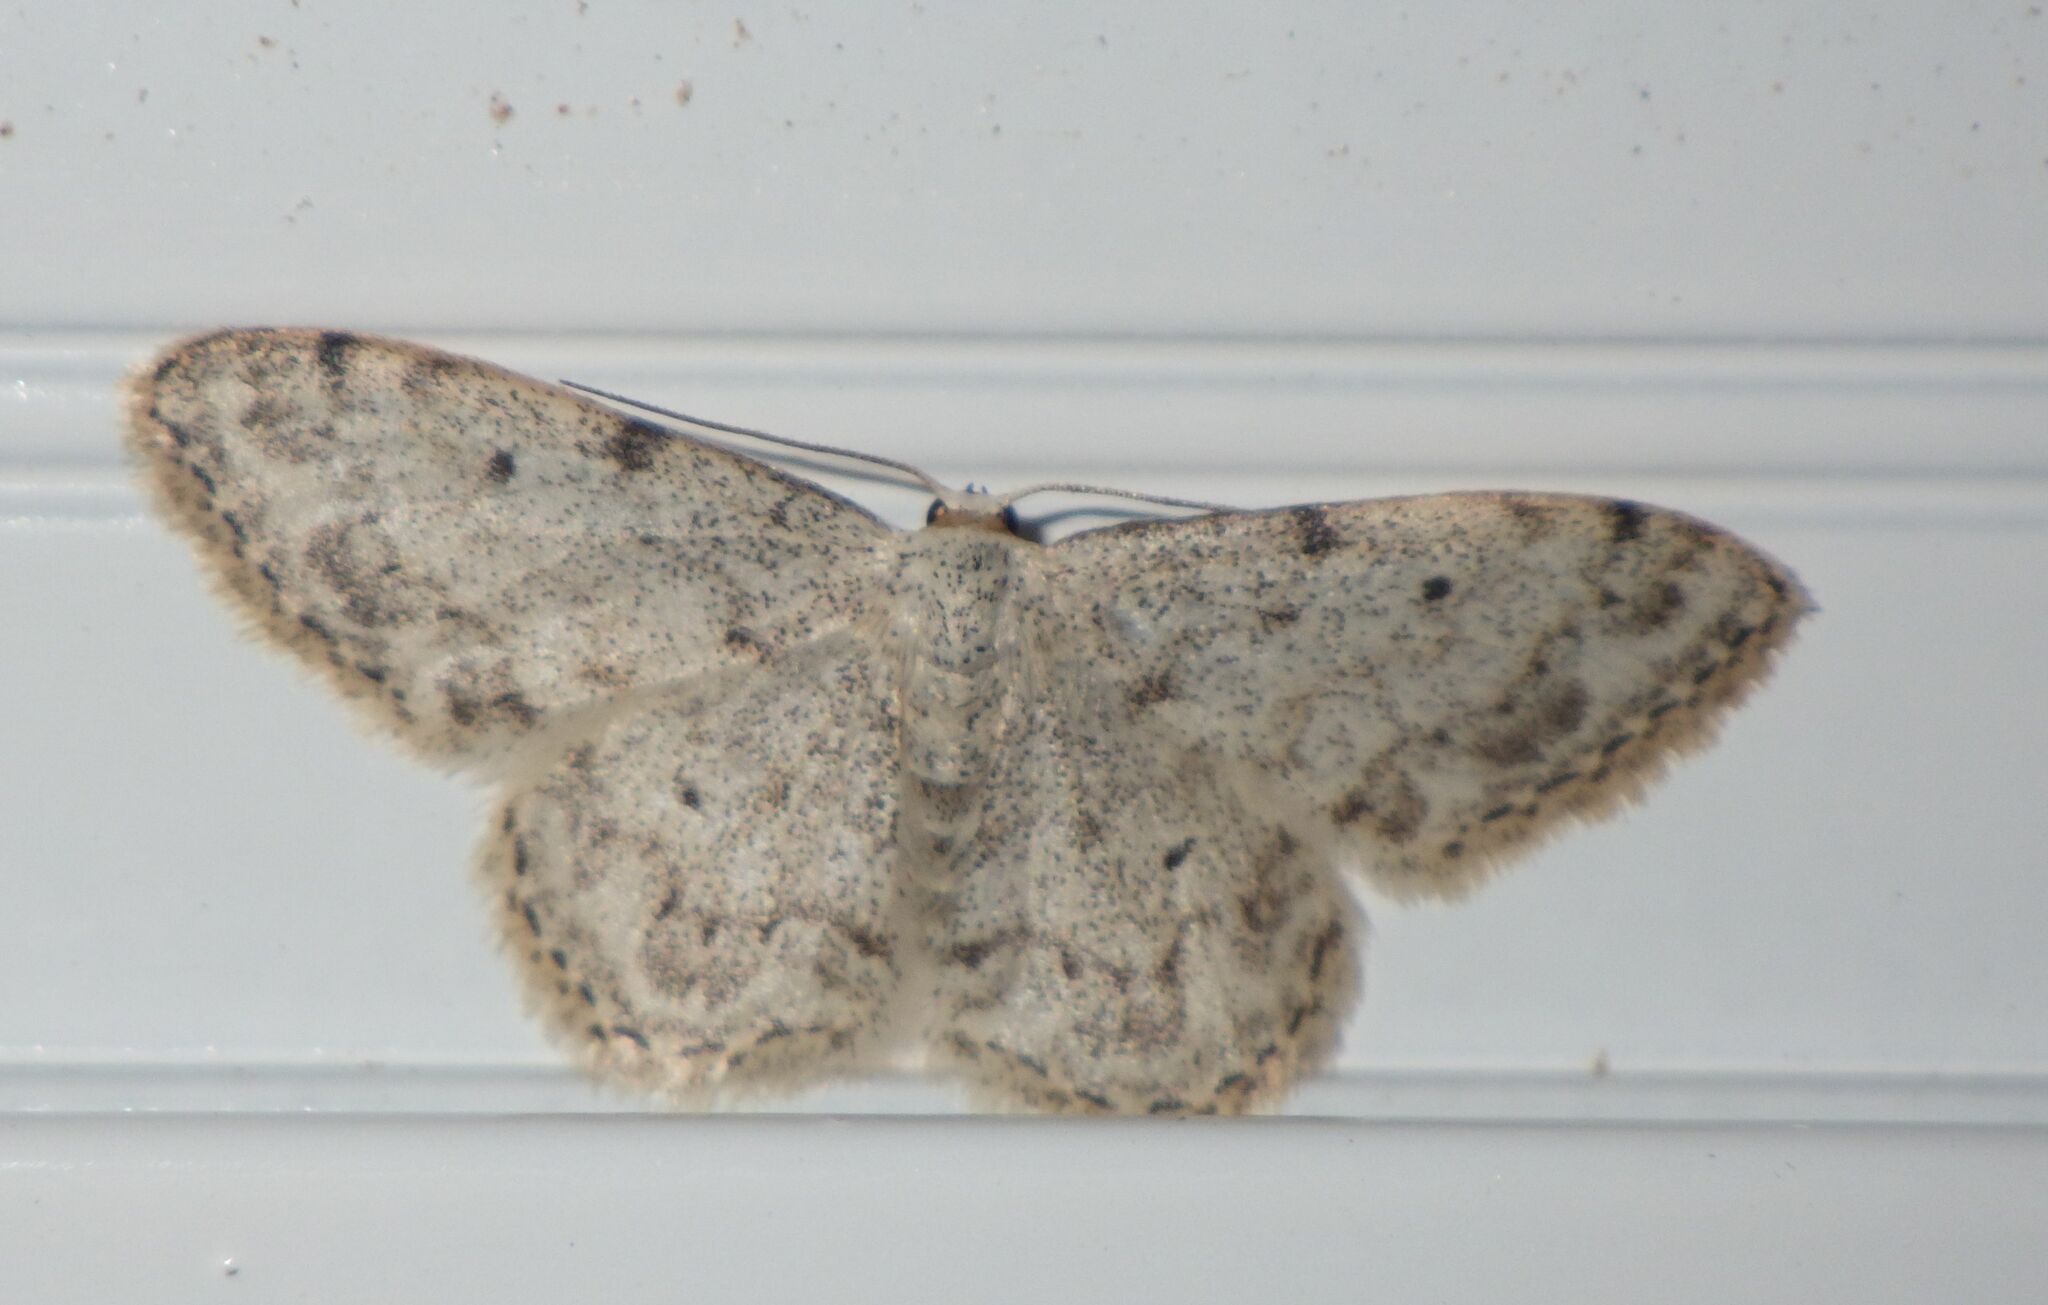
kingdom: Animalia
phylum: Arthropoda
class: Insecta
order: Lepidoptera
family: Geometridae
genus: Idaea
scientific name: Idaea camparia
